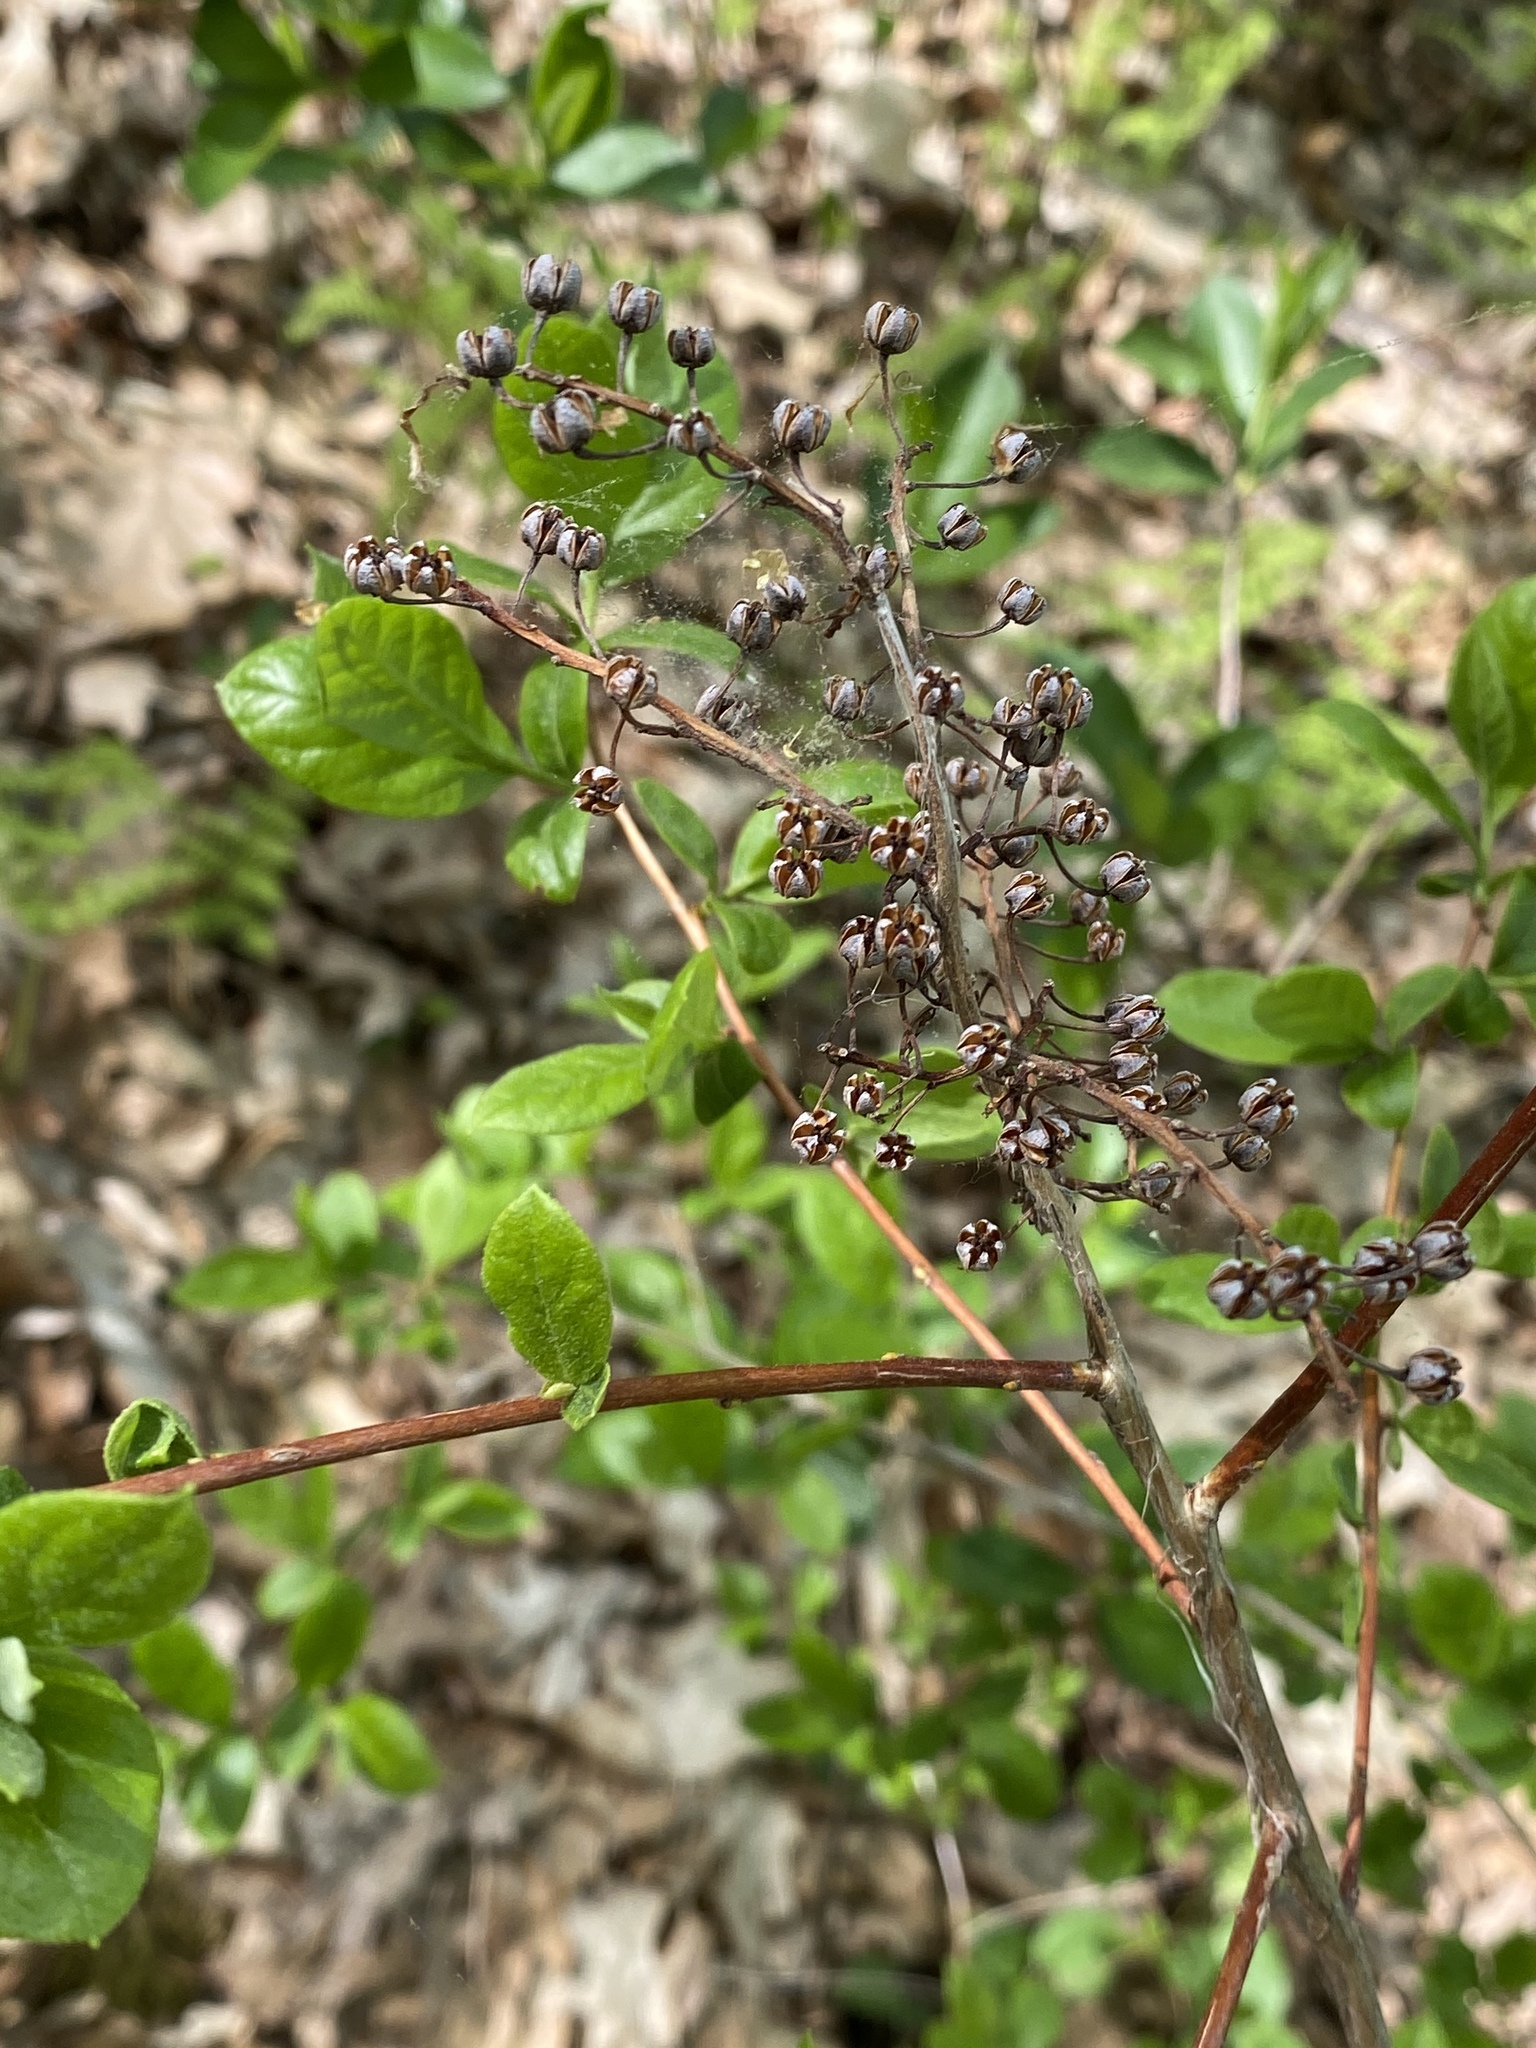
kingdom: Plantae
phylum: Tracheophyta
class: Magnoliopsida
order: Ericales
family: Ericaceae
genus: Lyonia
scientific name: Lyonia ligustrina
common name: Maleberry
